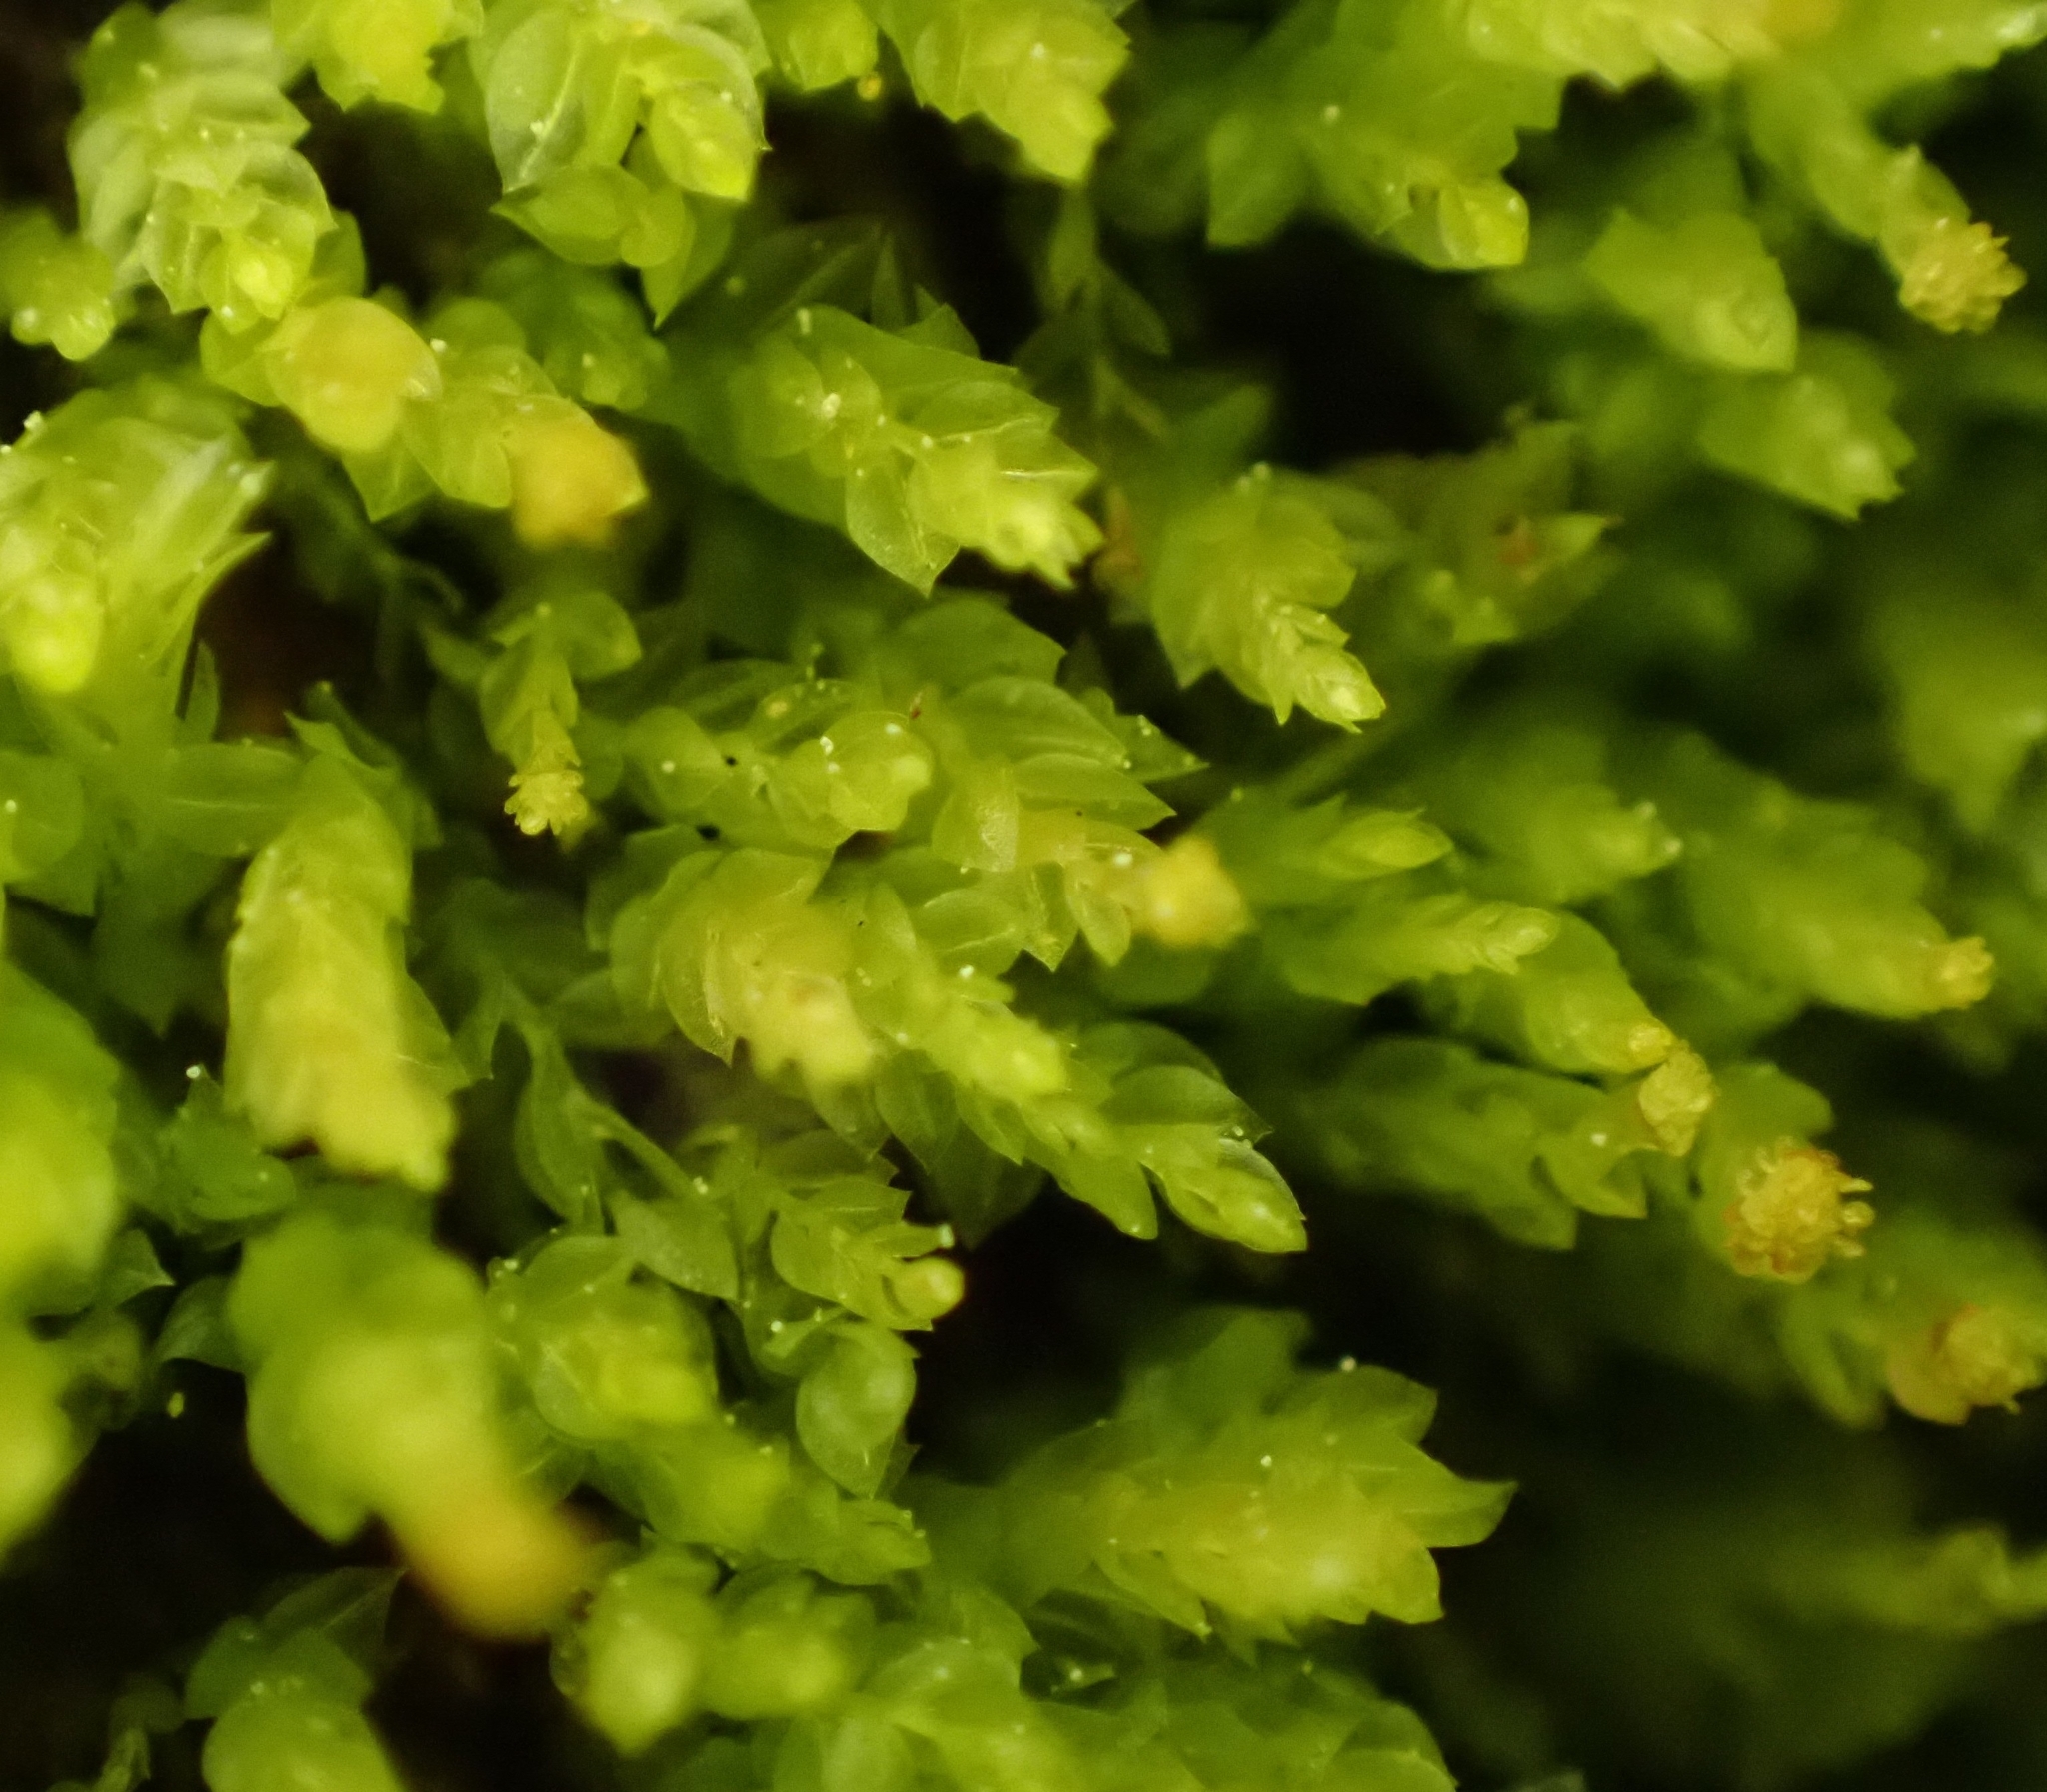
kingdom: Plantae
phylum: Bryophyta
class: Polytrichopsida
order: Tetraphidales
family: Tetraphidaceae
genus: Tetraphis
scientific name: Tetraphis pellucida
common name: Common four-toothed moss
